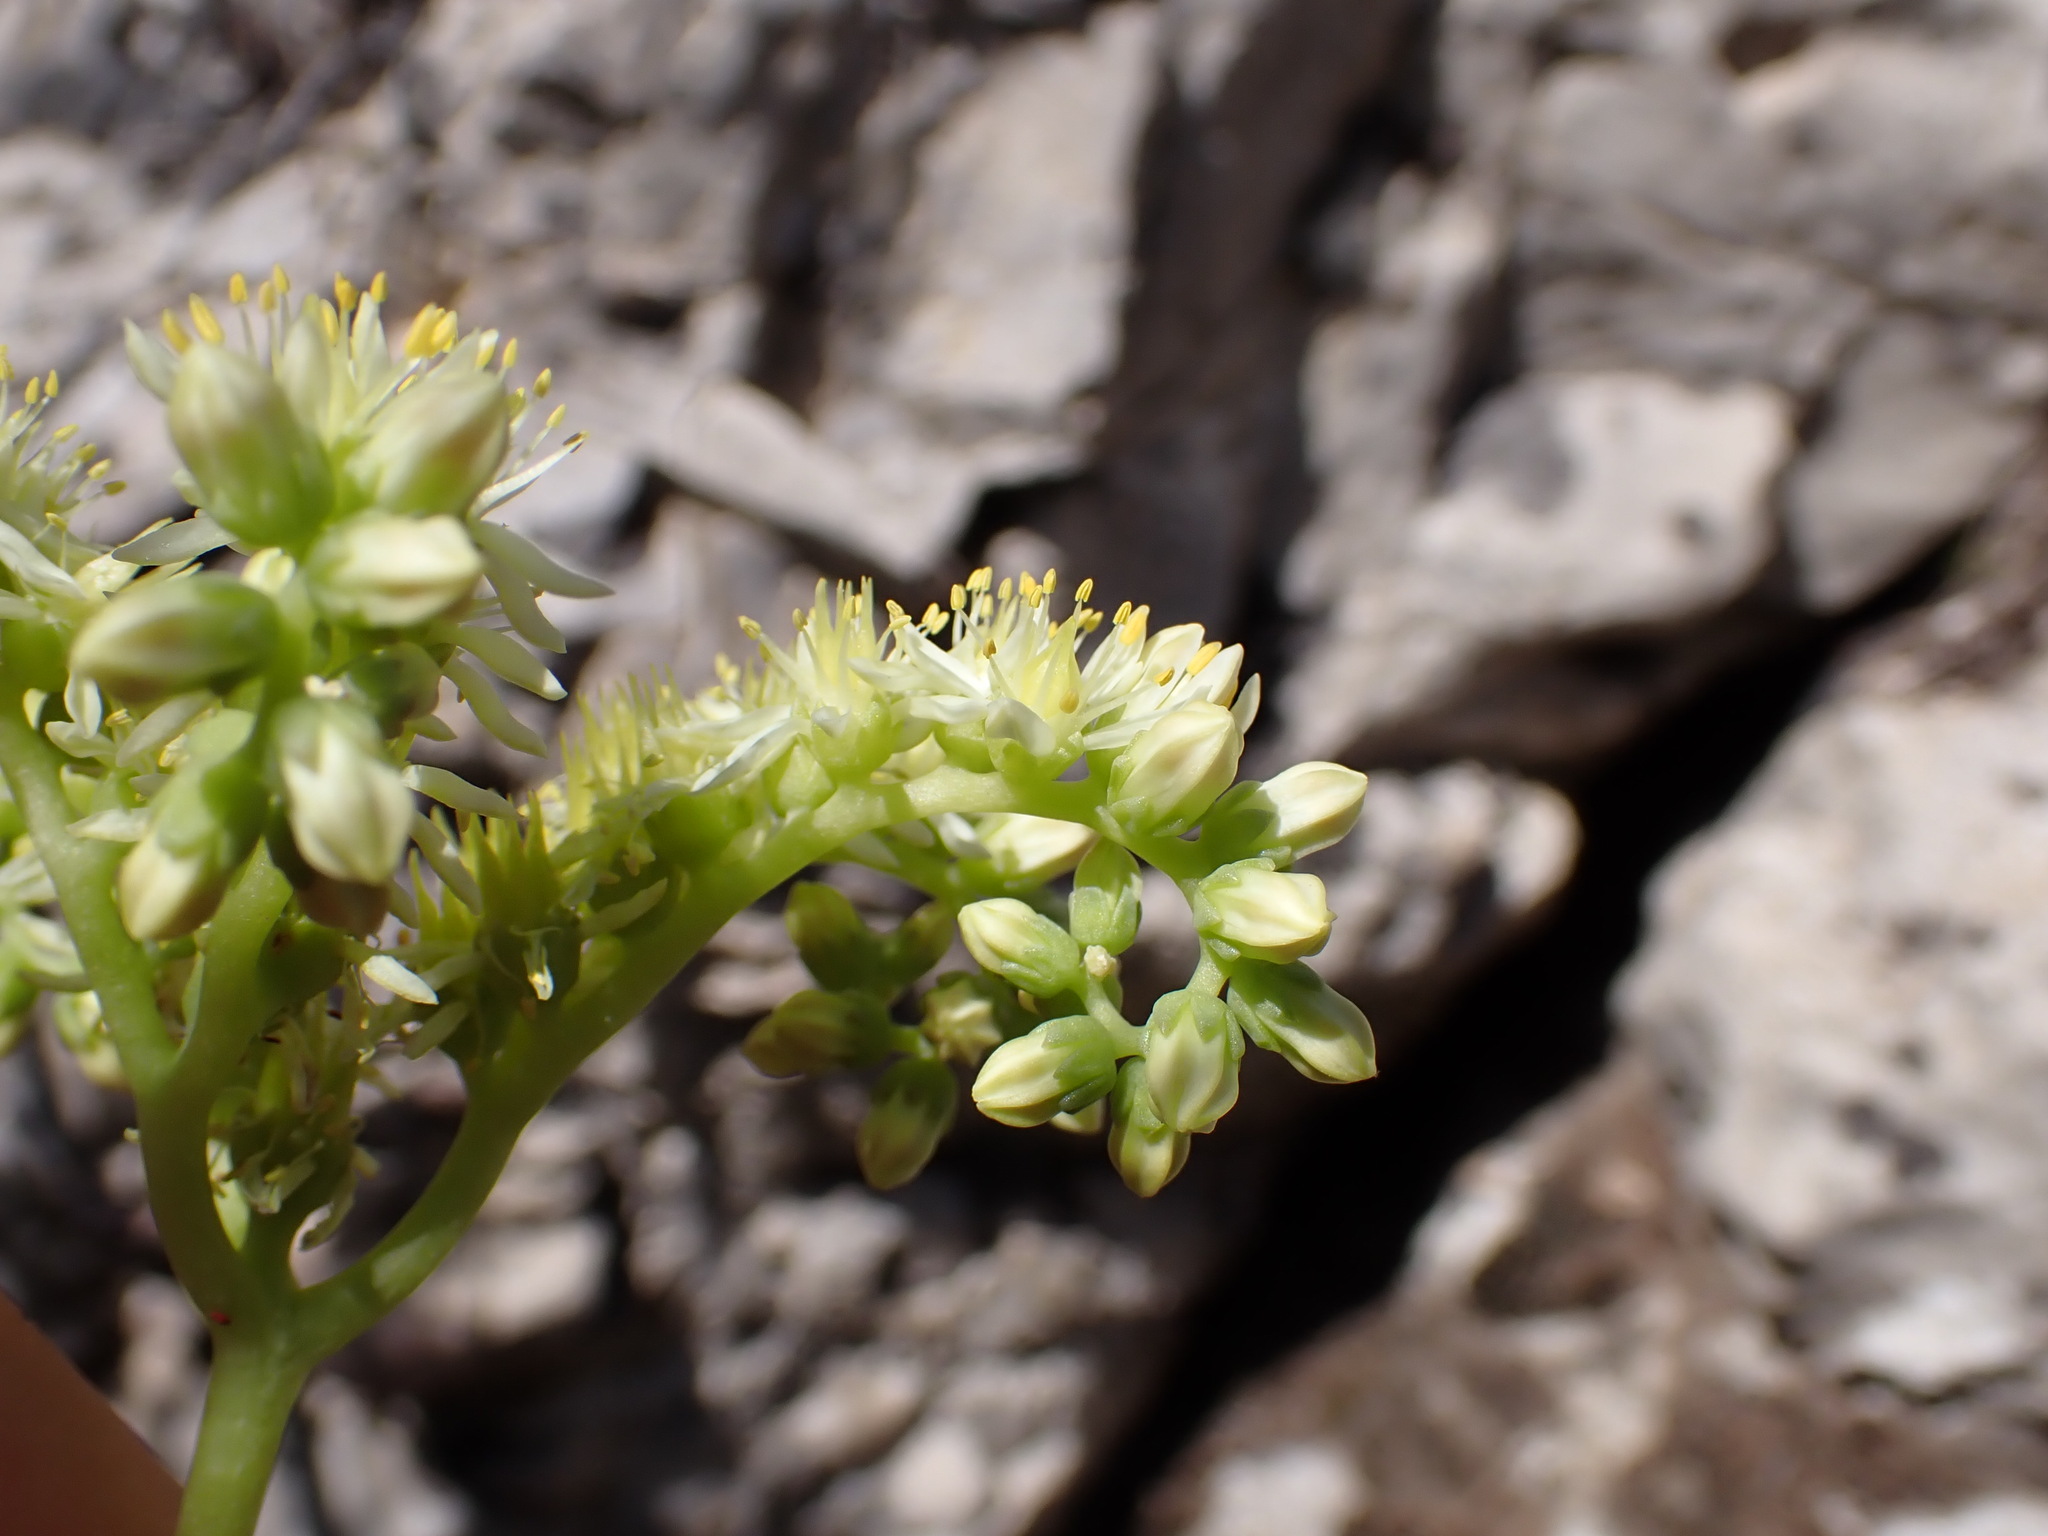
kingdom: Plantae
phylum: Tracheophyta
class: Magnoliopsida
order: Saxifragales
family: Crassulaceae
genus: Petrosedum
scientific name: Petrosedum sediforme
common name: Pale stonecrop
